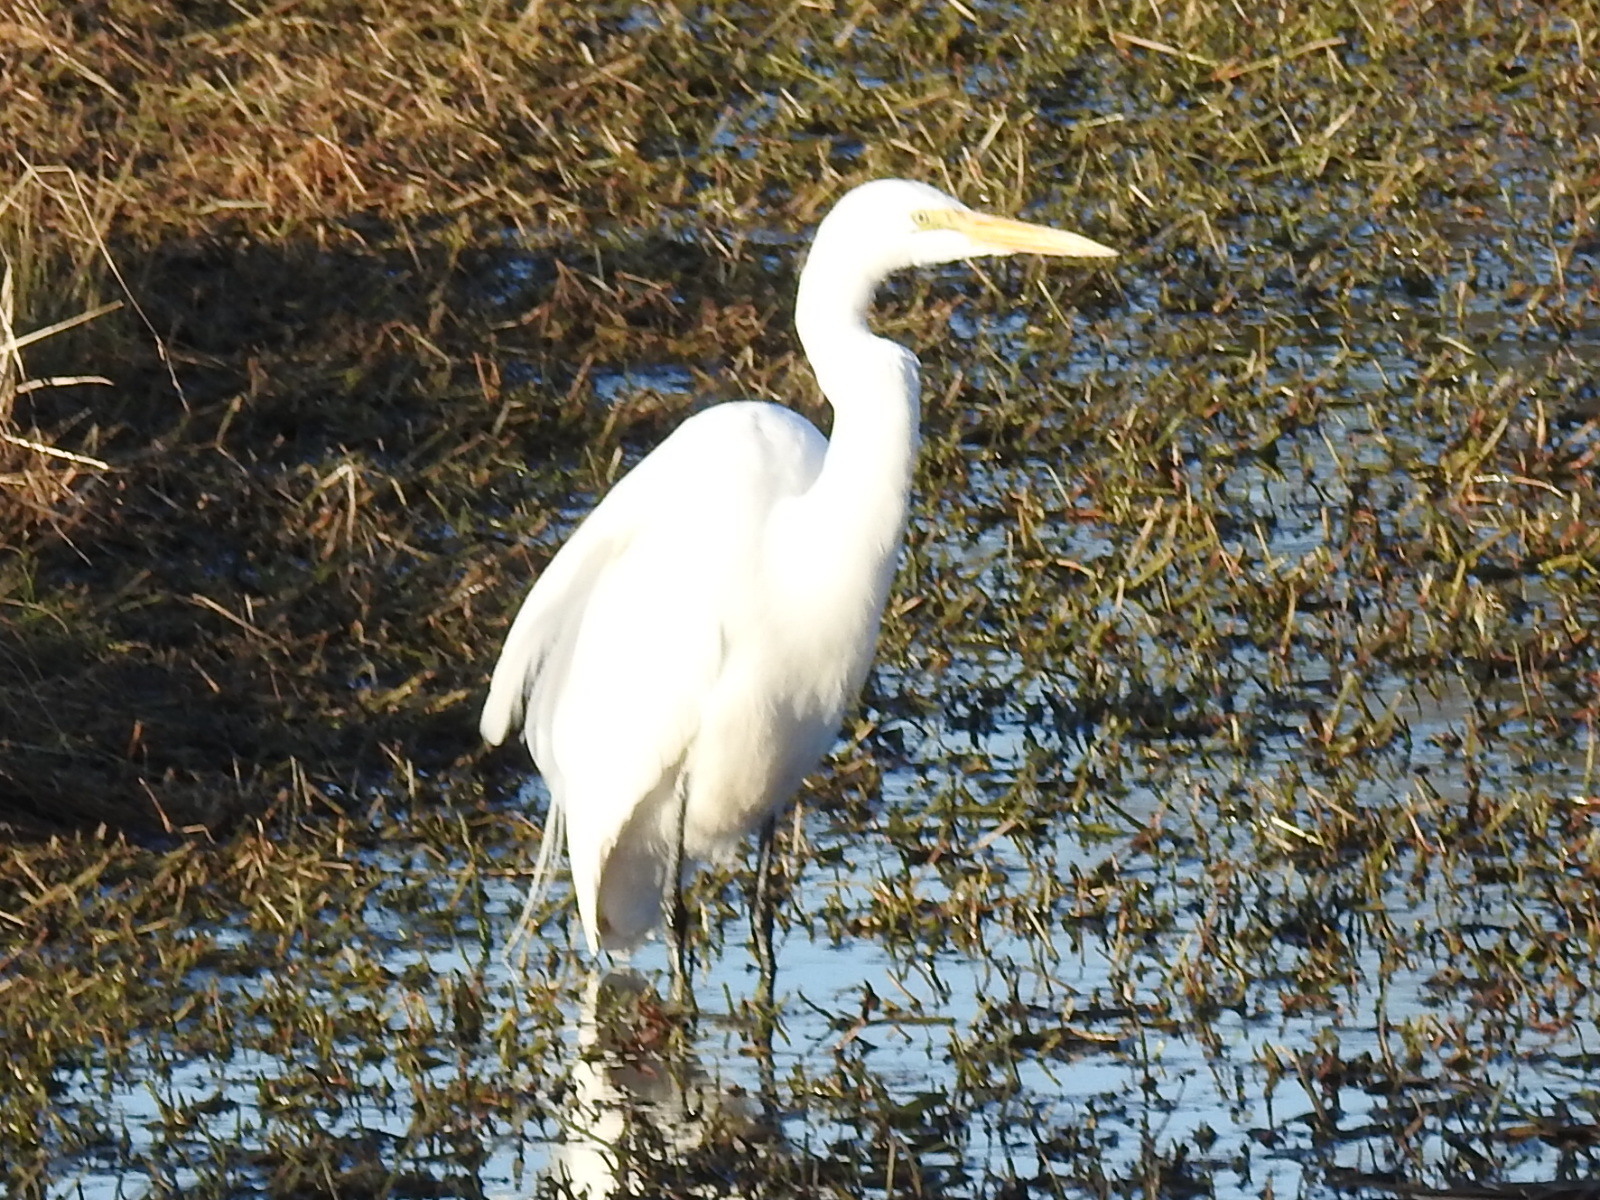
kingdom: Animalia
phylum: Chordata
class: Aves
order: Pelecaniformes
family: Ardeidae
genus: Ardea
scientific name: Ardea alba
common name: Great egret
